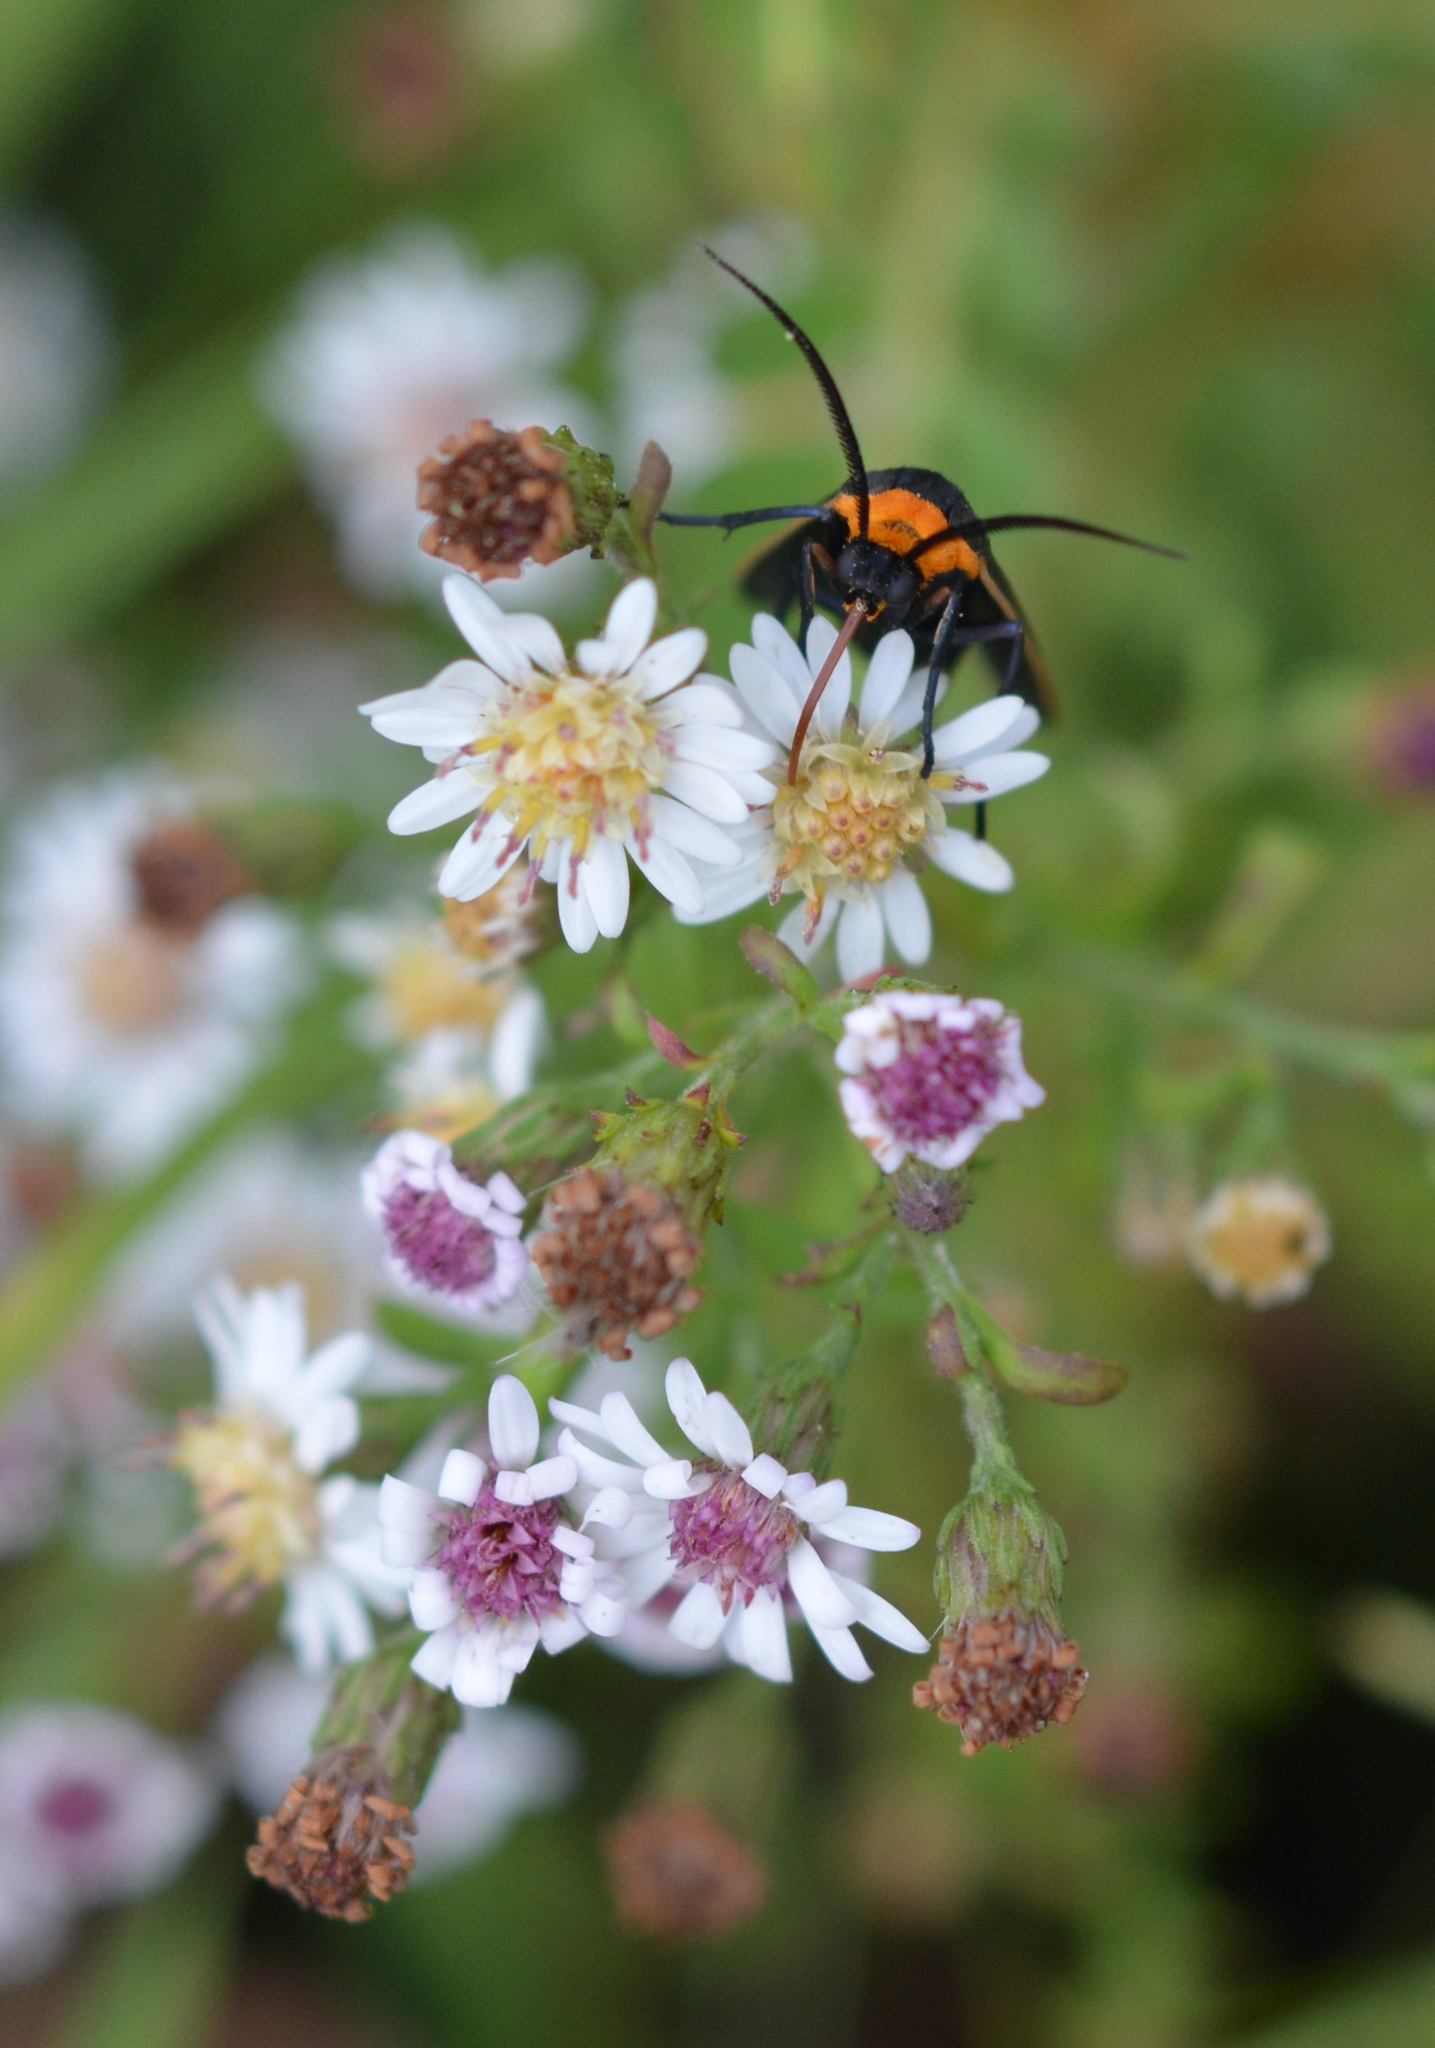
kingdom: Animalia
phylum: Arthropoda
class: Insecta
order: Lepidoptera
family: Erebidae
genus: Cisseps
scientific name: Cisseps fulvicollis
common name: Yellow-collared scape moth
